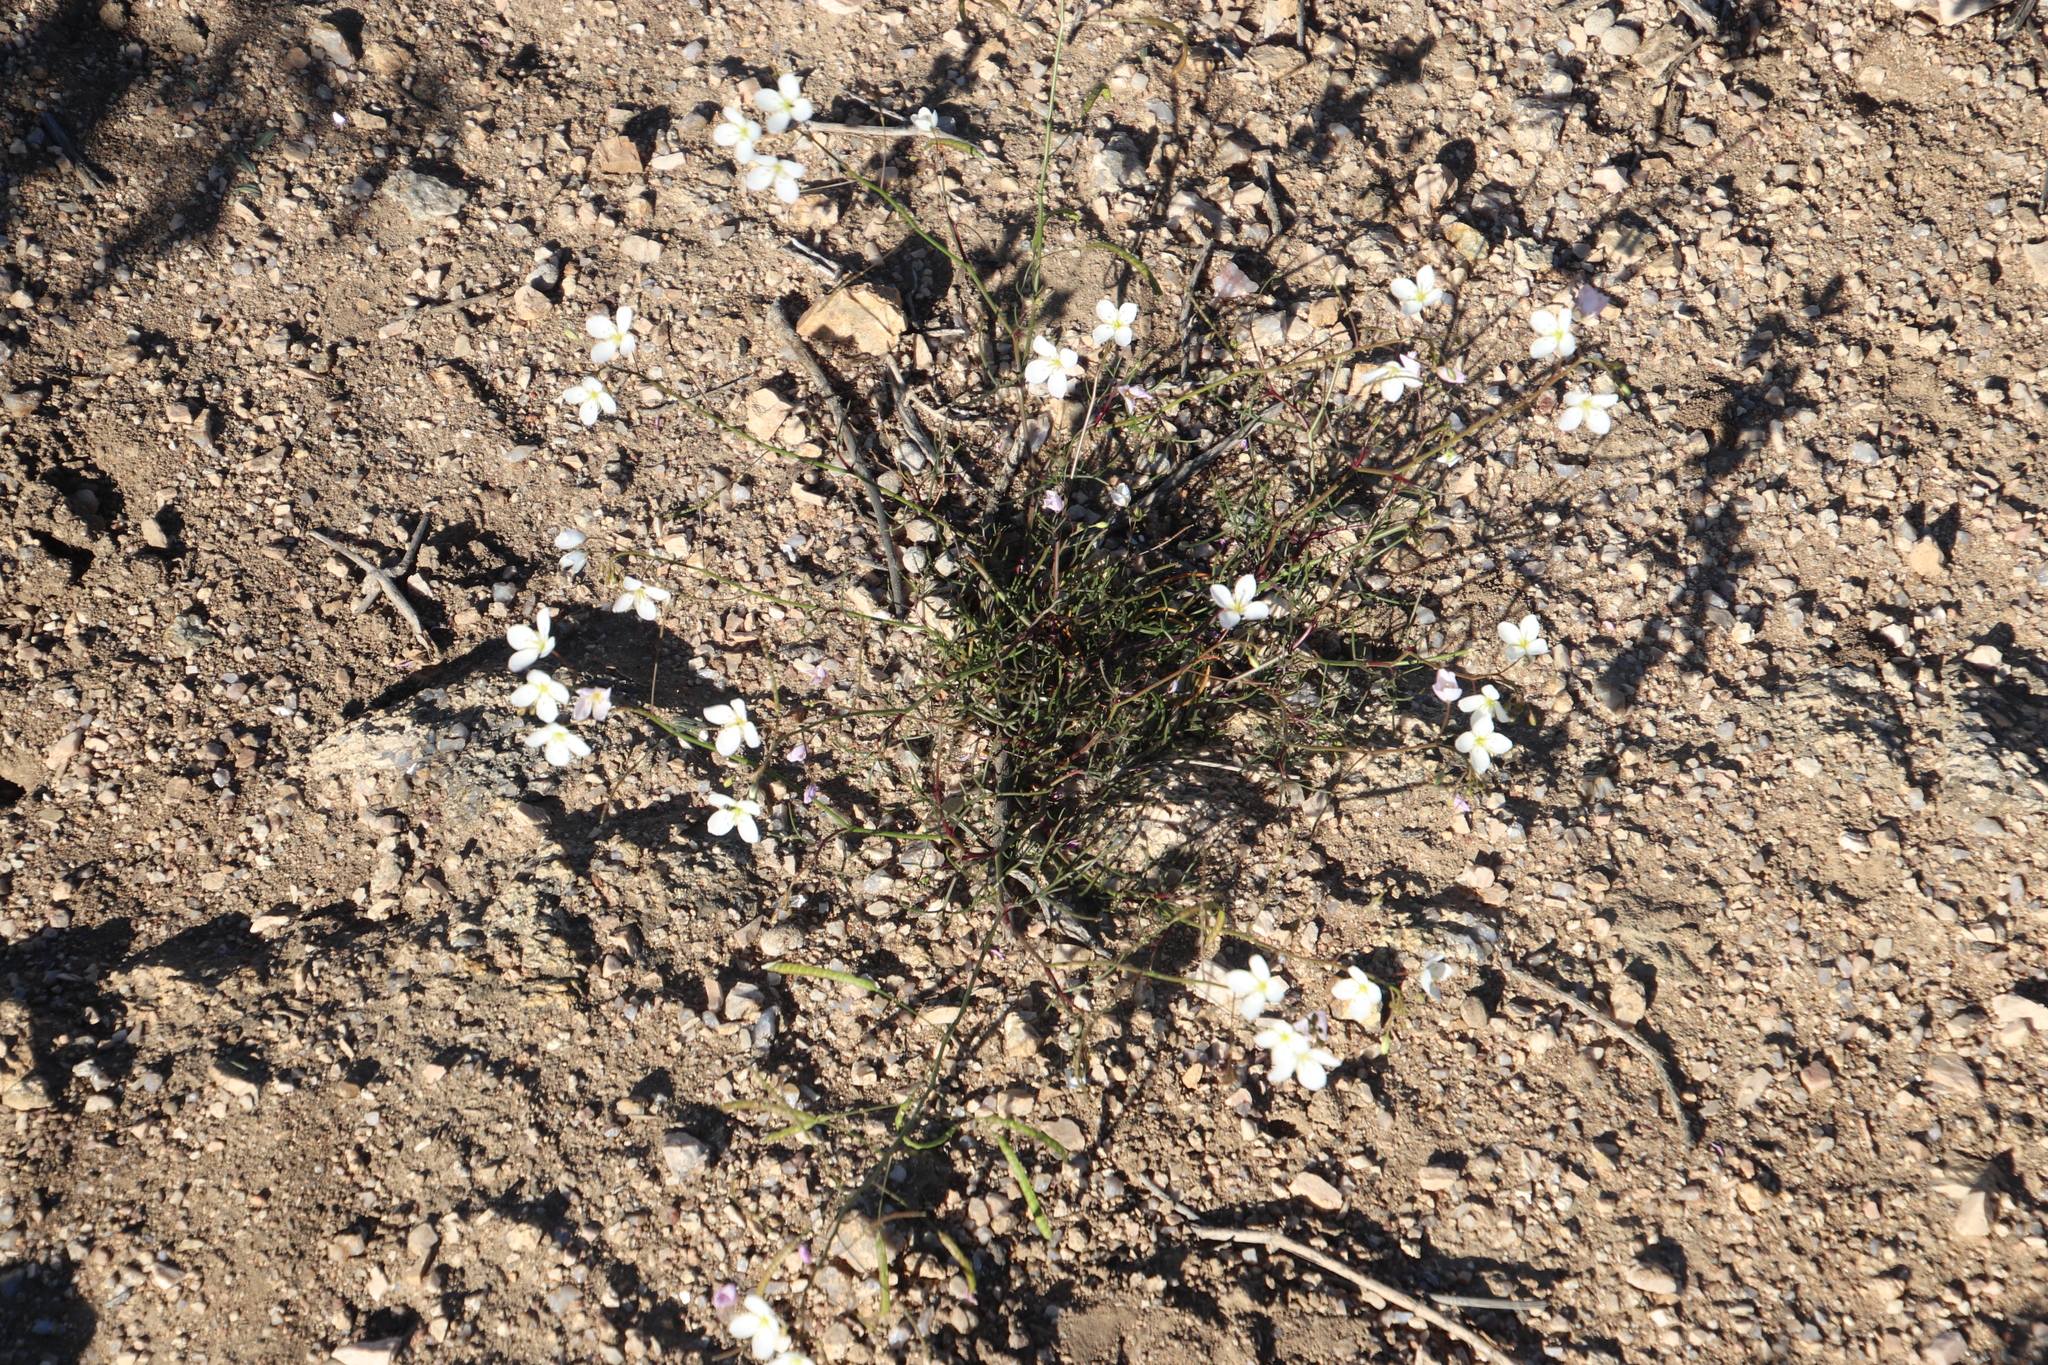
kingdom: Plantae
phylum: Tracheophyta
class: Magnoliopsida
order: Brassicales
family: Brassicaceae
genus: Heliophila
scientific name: Heliophila variabilis
